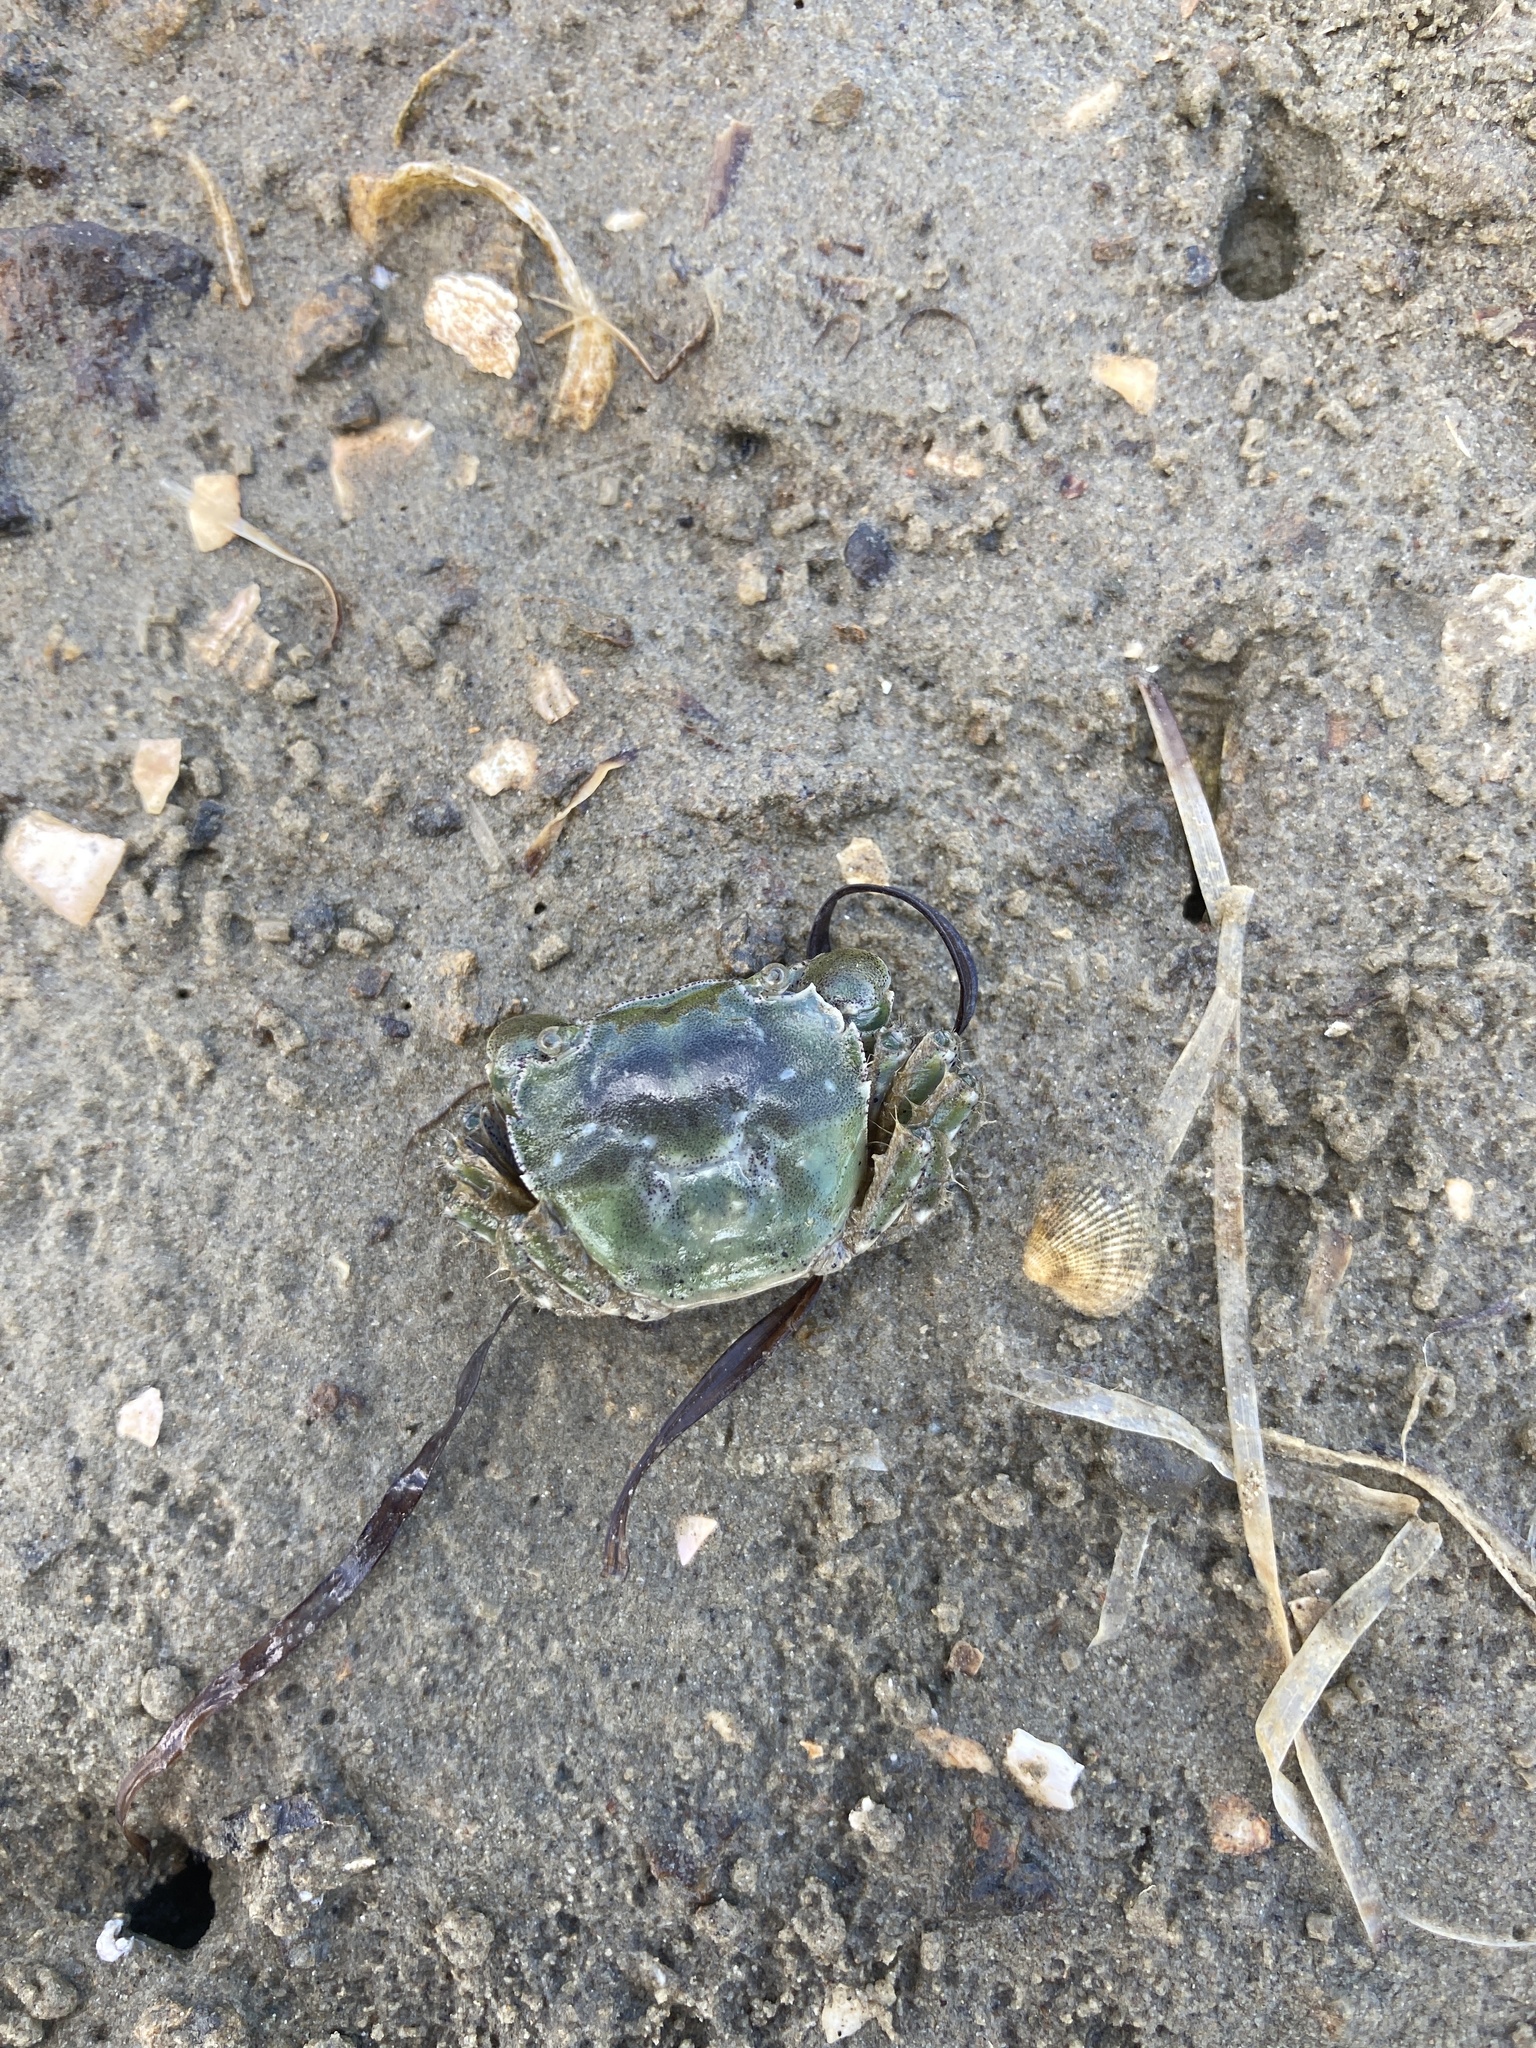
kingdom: Animalia
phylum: Arthropoda
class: Malacostraca
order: Decapoda
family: Varunidae
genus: Hemigrapsus
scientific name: Hemigrapsus crenulatus
